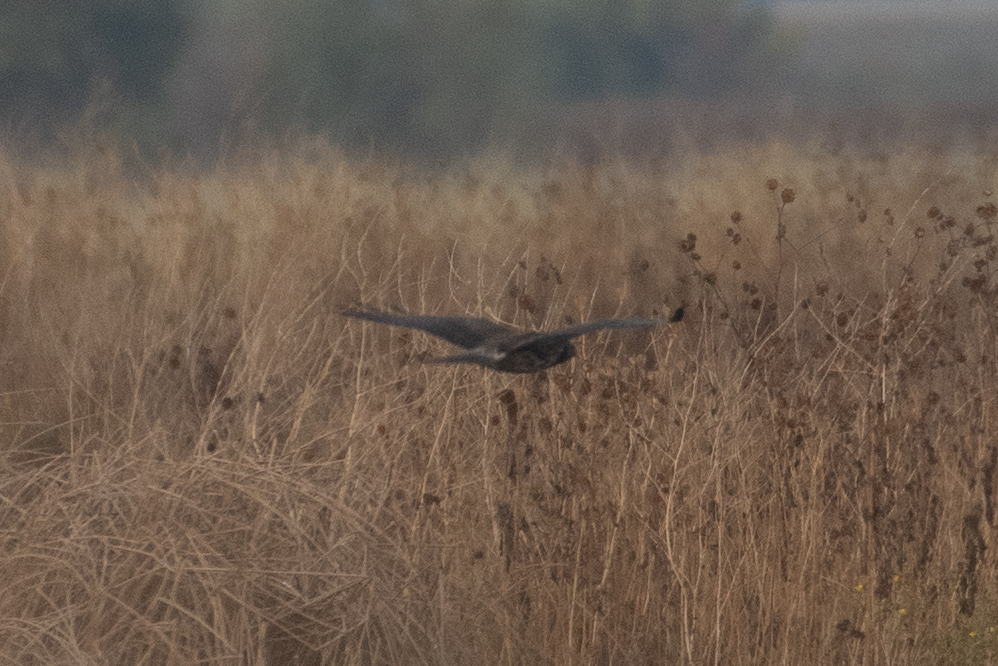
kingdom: Animalia
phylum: Chordata
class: Aves
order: Accipitriformes
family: Accipitridae
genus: Buteo
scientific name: Buteo swainsoni
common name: Swainson's hawk
